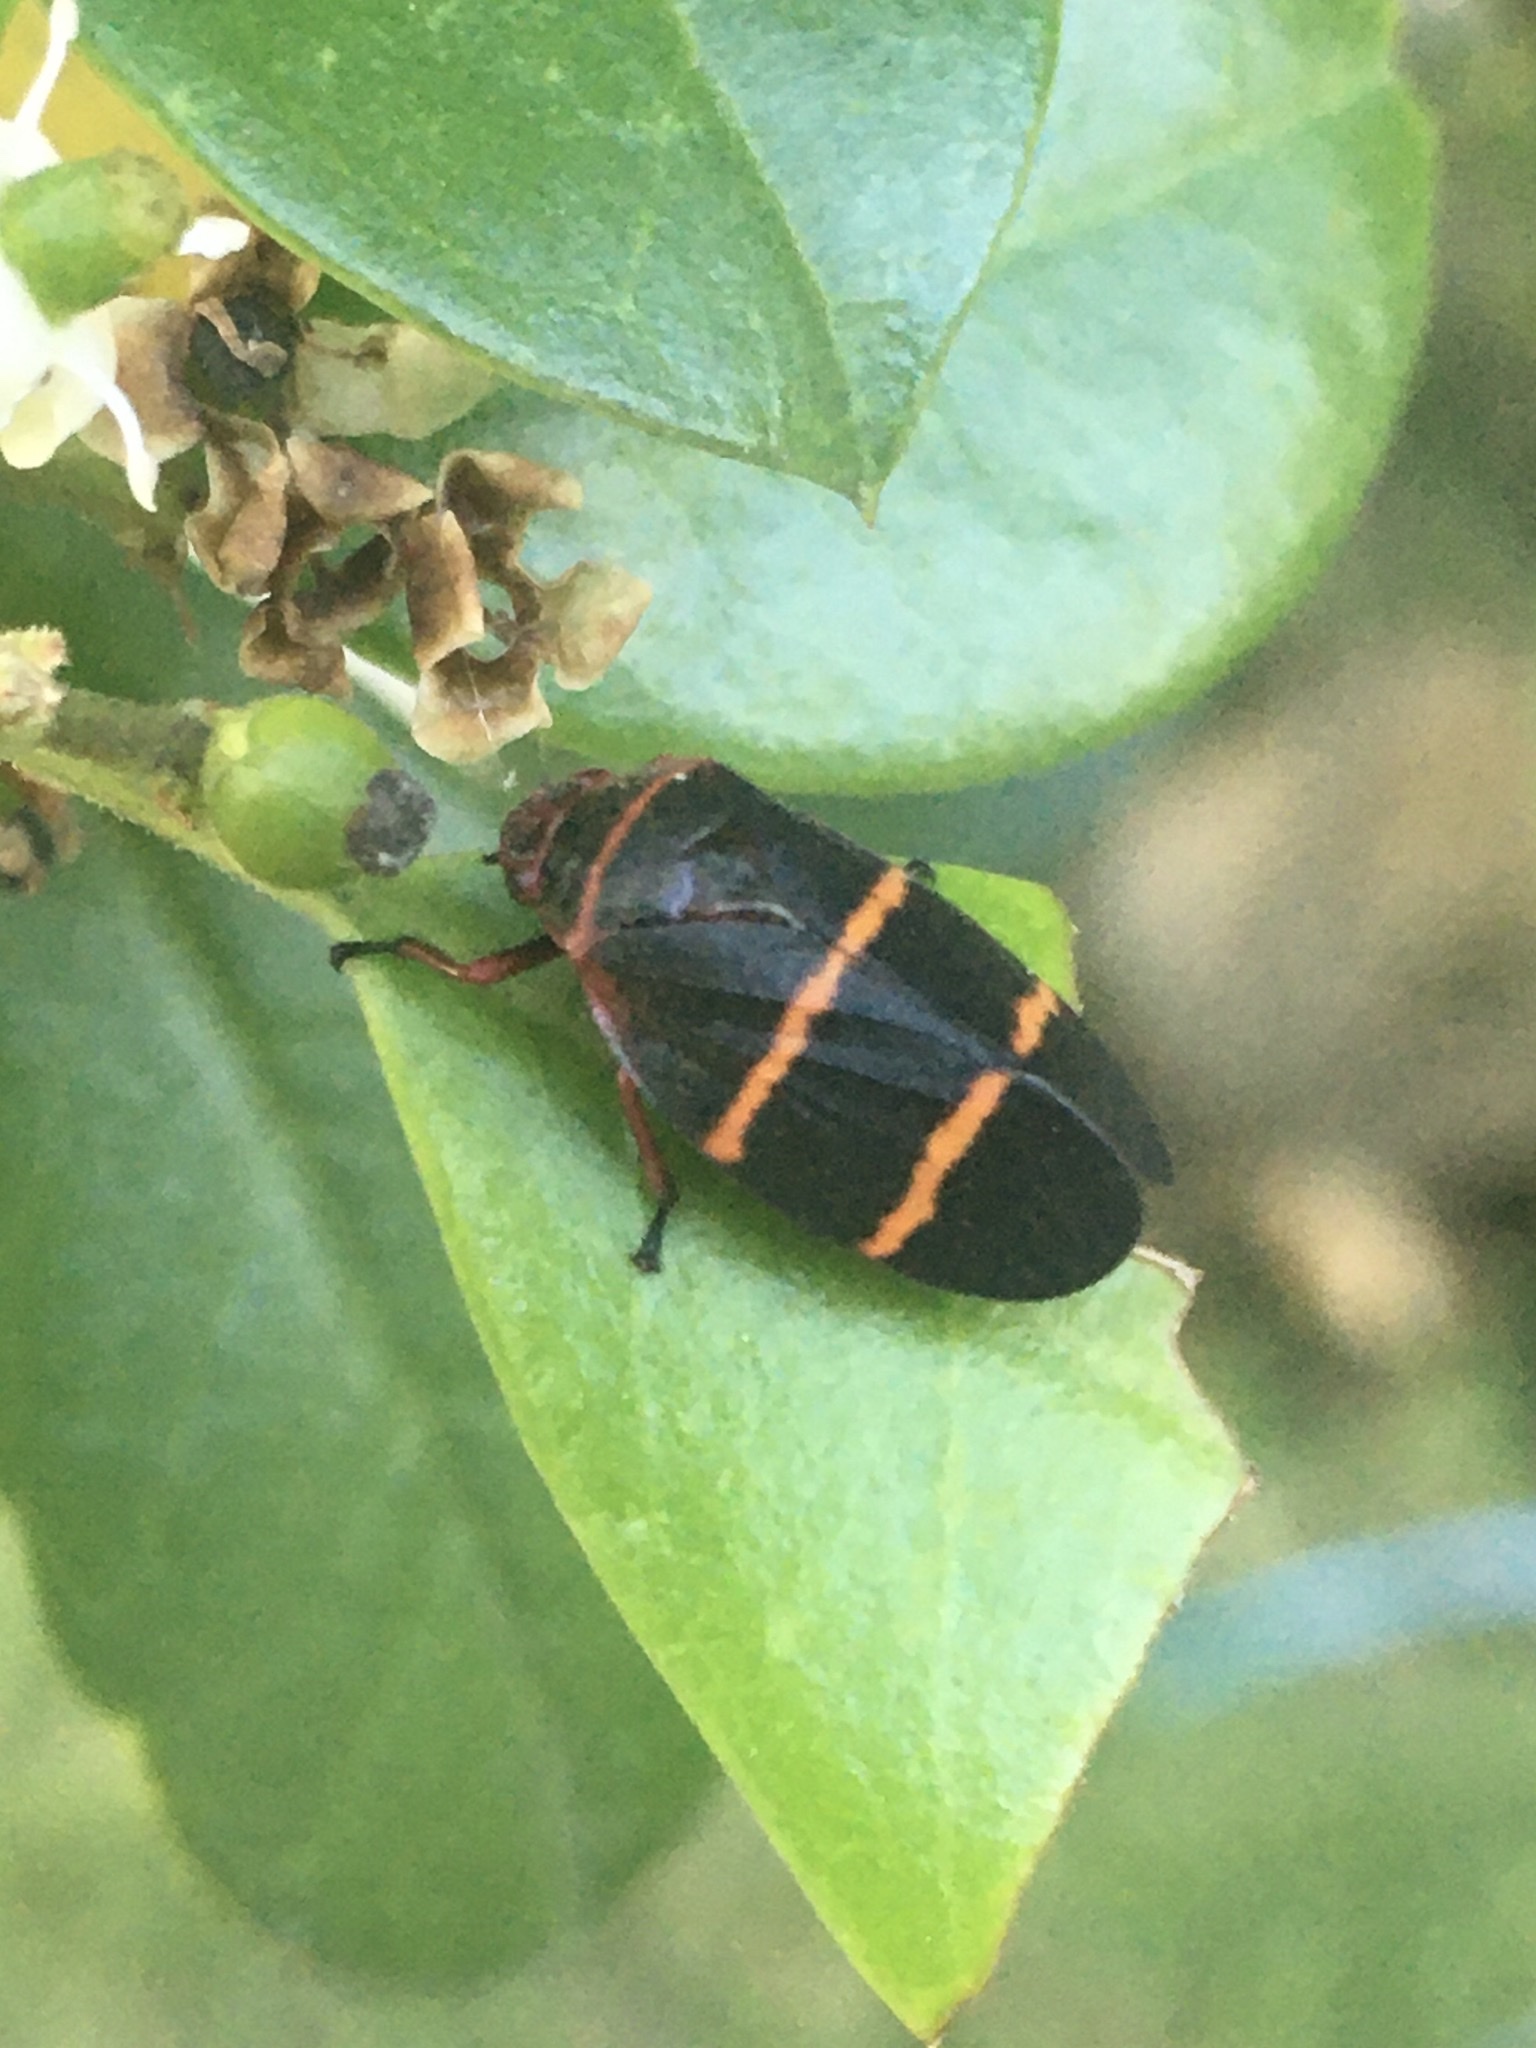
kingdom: Animalia
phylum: Arthropoda
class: Insecta
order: Hemiptera
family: Cercopidae
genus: Prosapia
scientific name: Prosapia bicincta
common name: Twolined spittlebug
